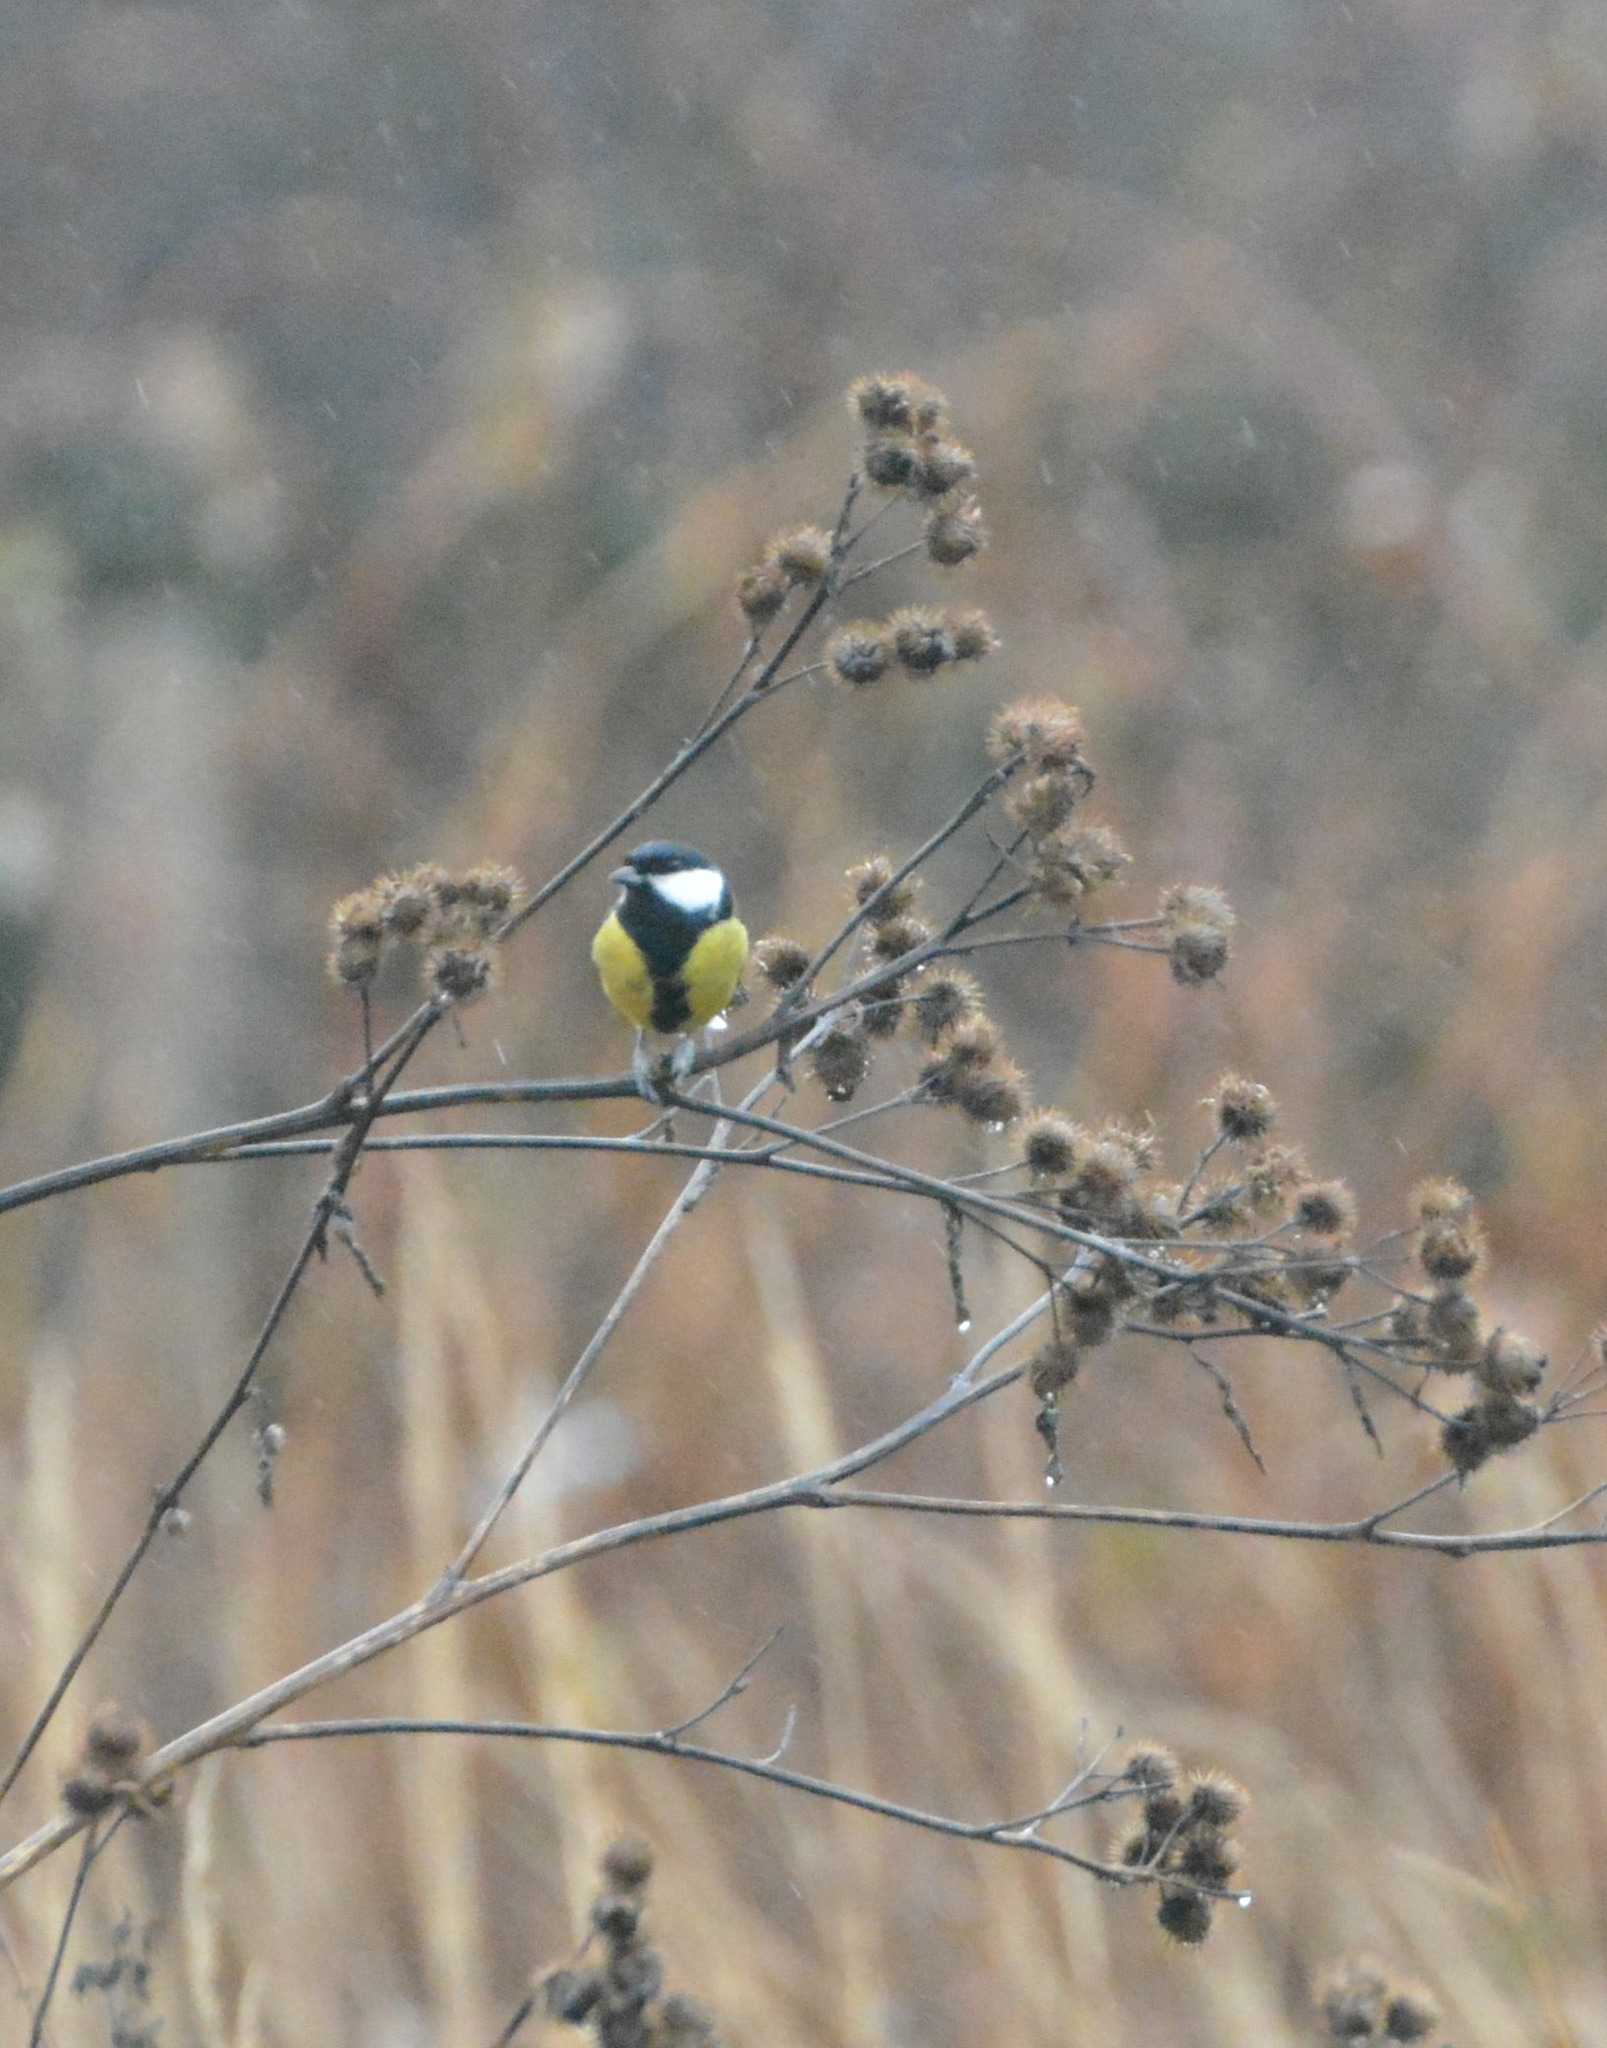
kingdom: Animalia
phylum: Chordata
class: Aves
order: Passeriformes
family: Paridae
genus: Parus
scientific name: Parus major
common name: Great tit
